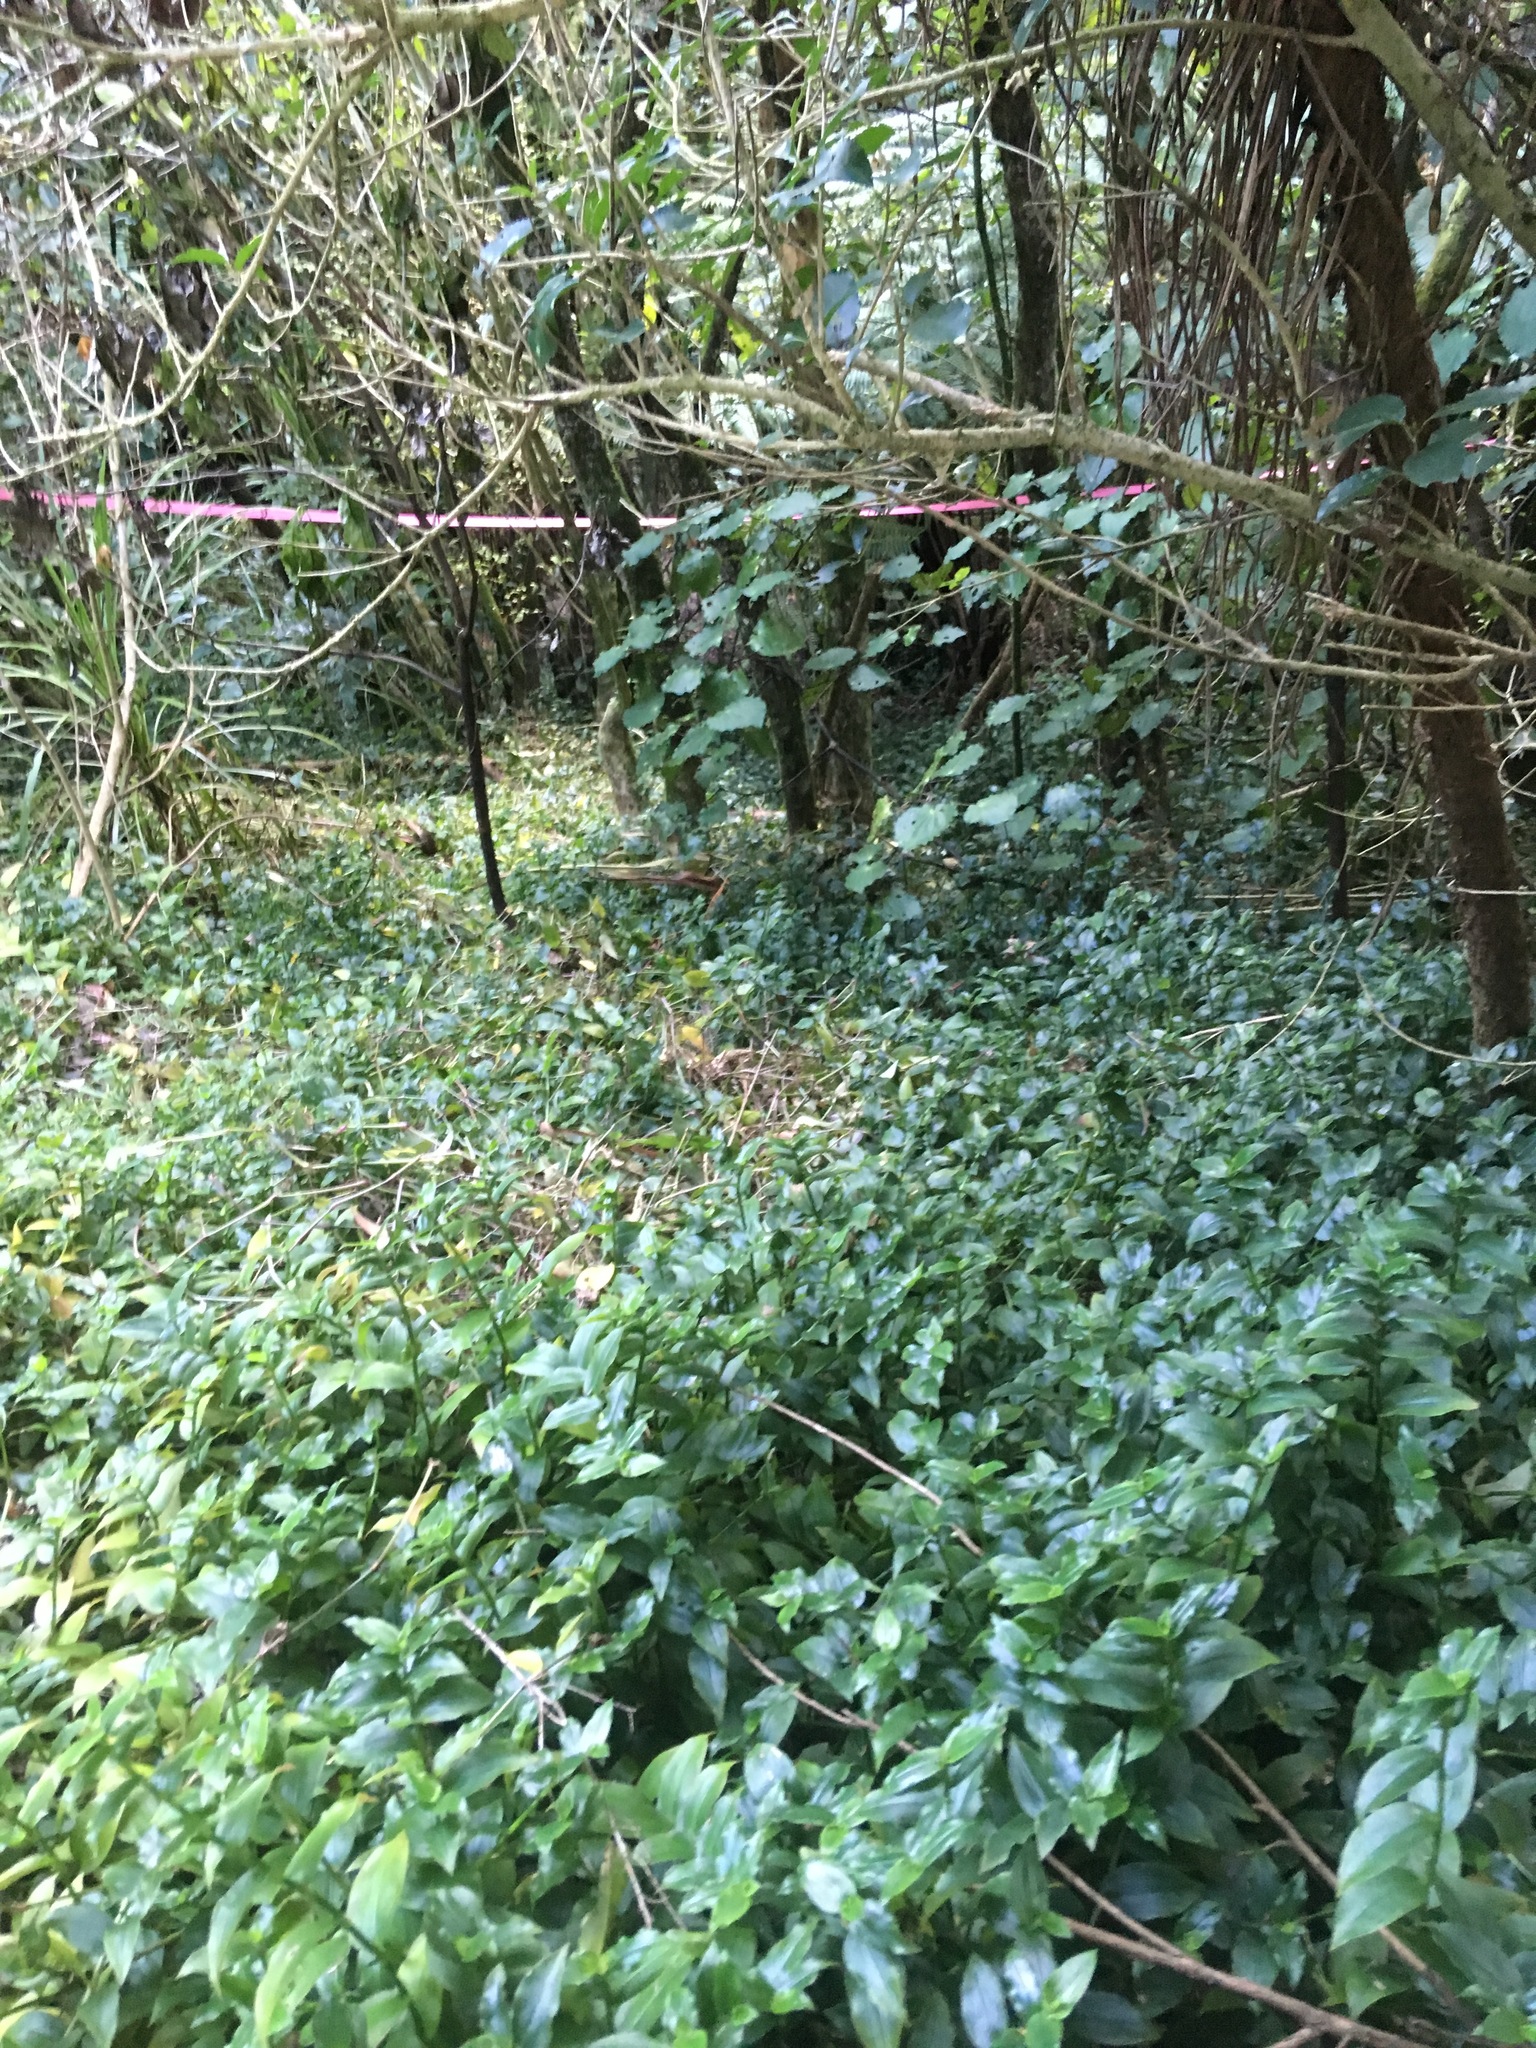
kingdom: Plantae
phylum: Tracheophyta
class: Liliopsida
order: Commelinales
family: Commelinaceae
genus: Tradescantia
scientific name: Tradescantia fluminensis
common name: Wandering-jew
